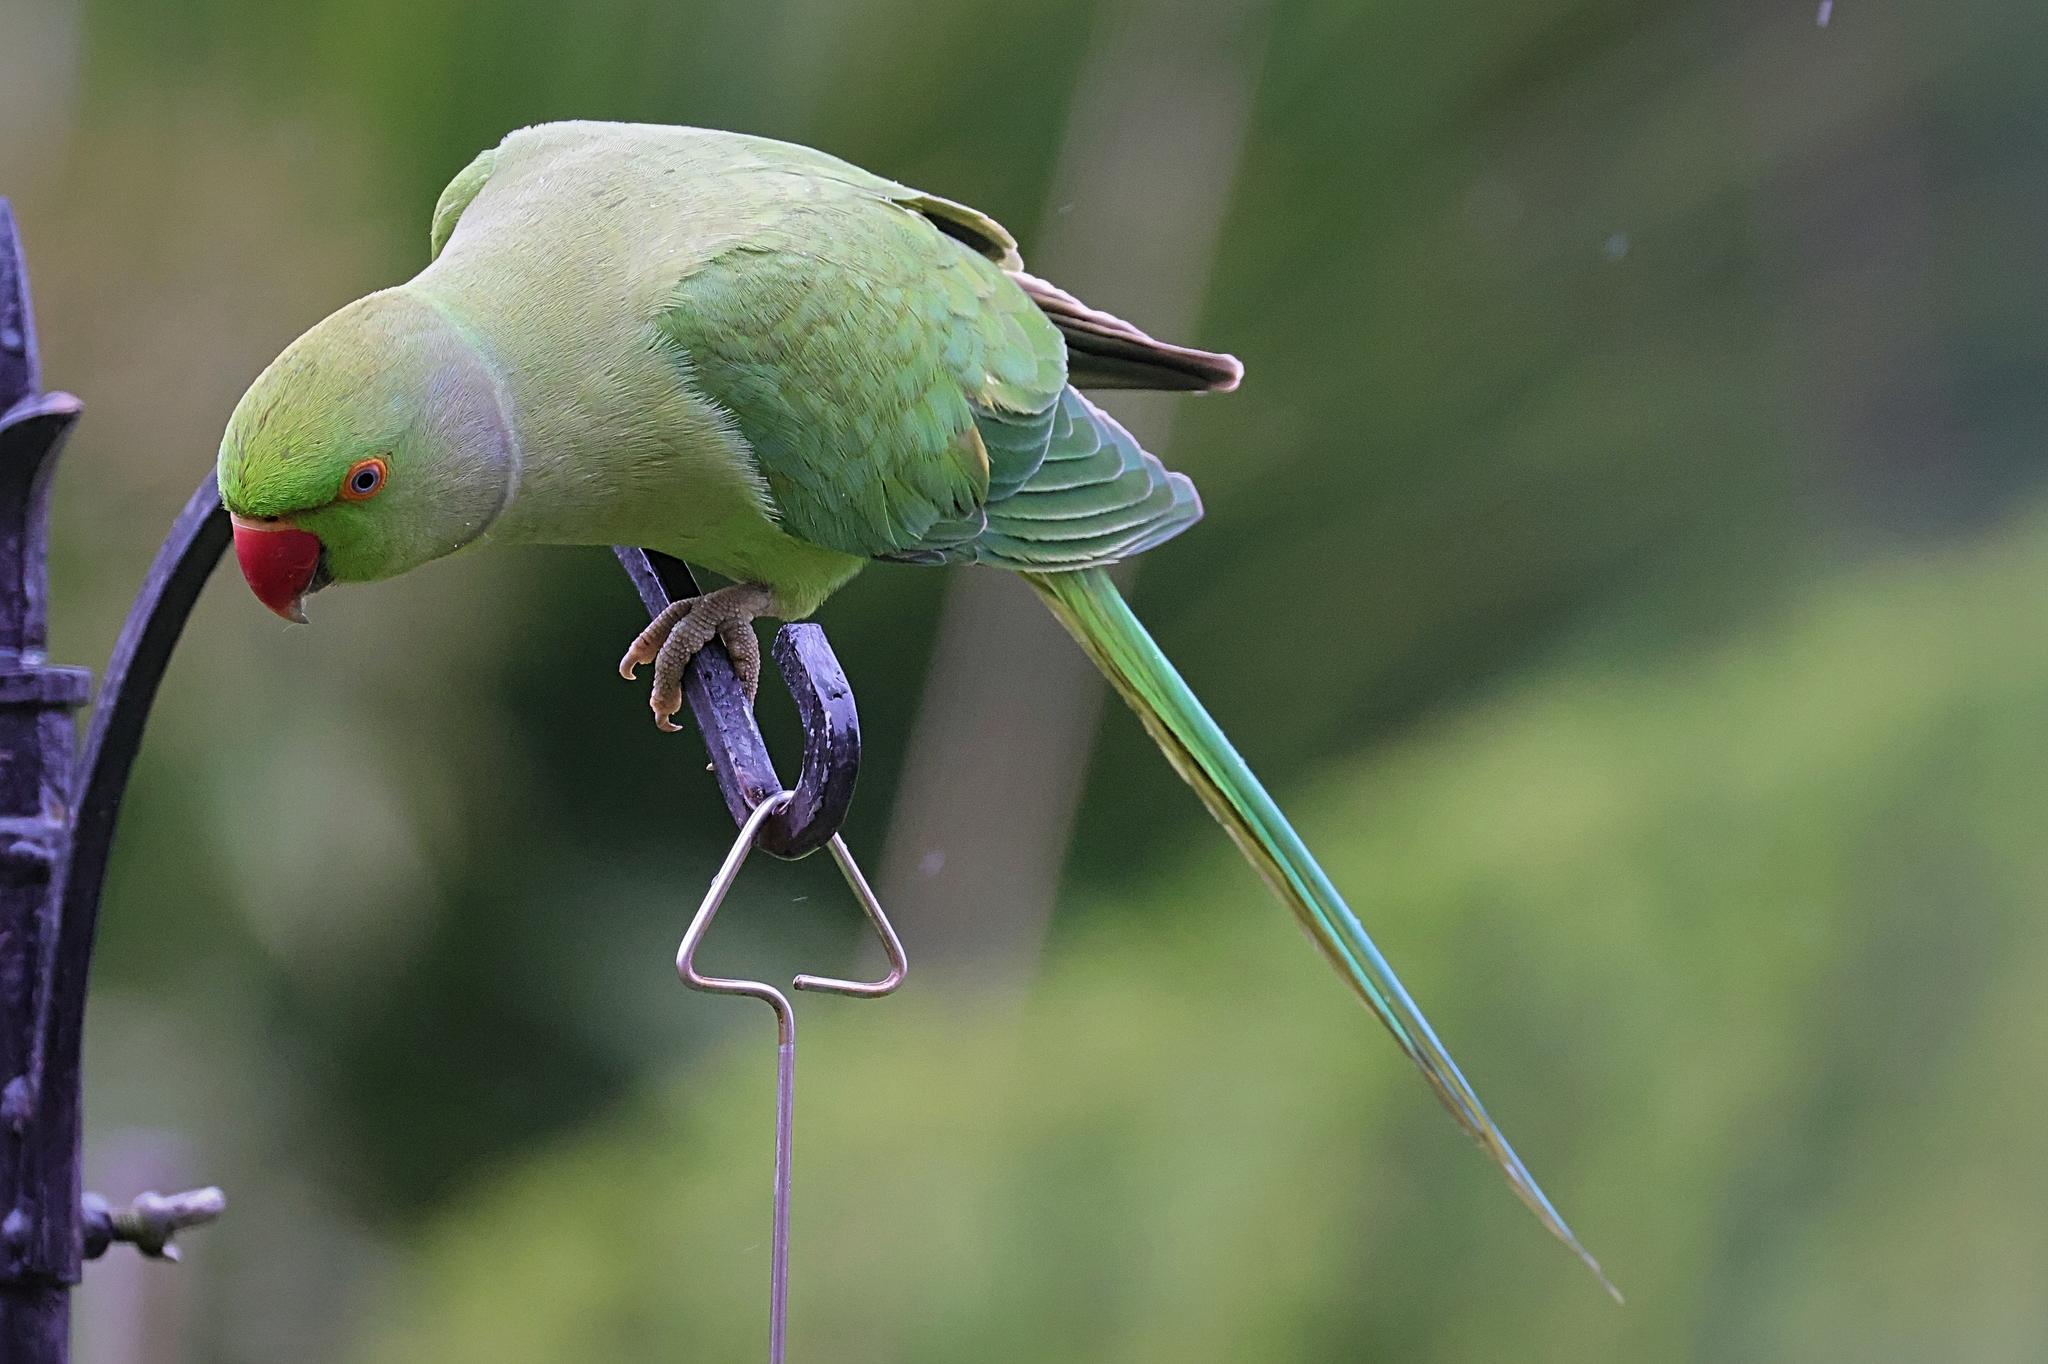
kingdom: Animalia
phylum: Chordata
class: Aves
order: Psittaciformes
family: Psittacidae
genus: Psittacula
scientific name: Psittacula krameri
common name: Rose-ringed parakeet
